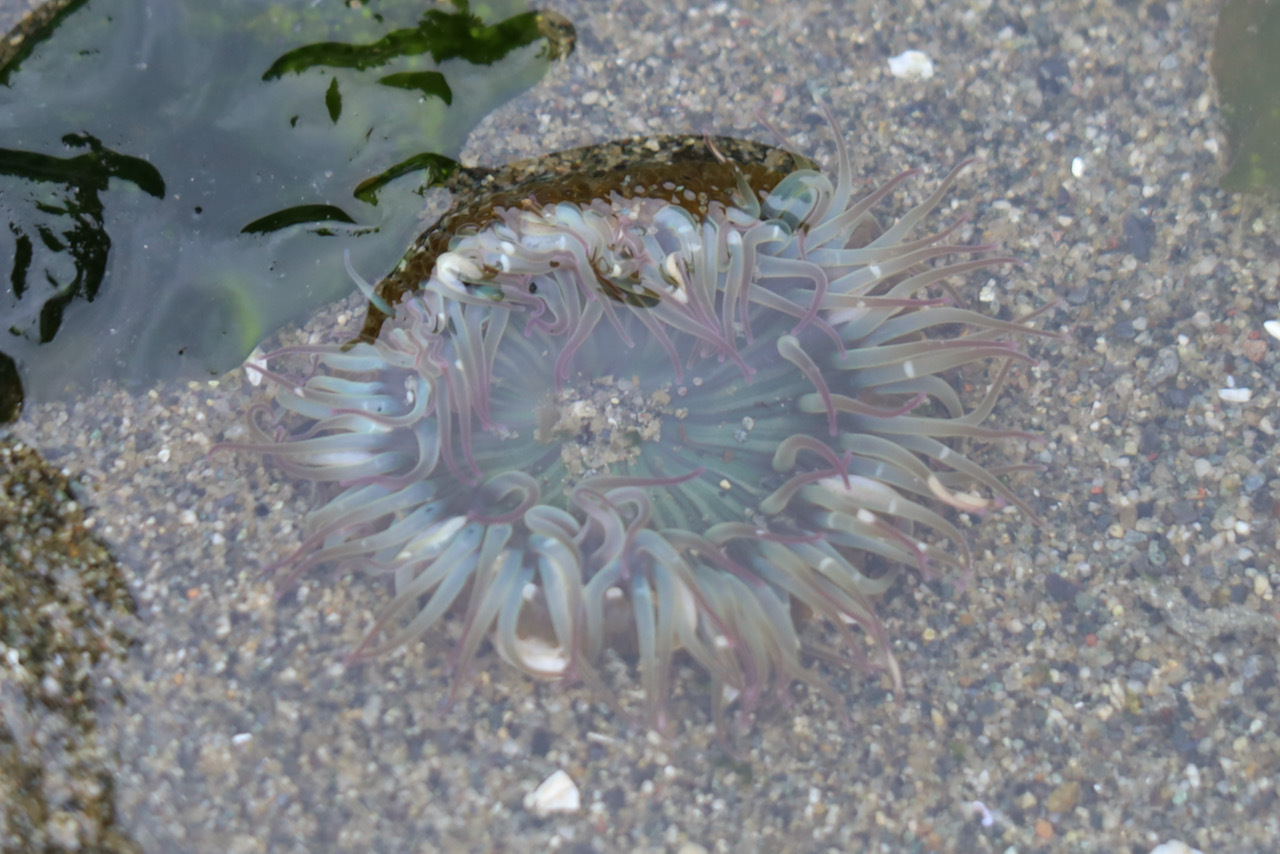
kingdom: Animalia
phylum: Cnidaria
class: Anthozoa
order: Actiniaria
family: Actiniidae
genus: Anthopleura
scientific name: Anthopleura elegantissima
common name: Clonal anemone
